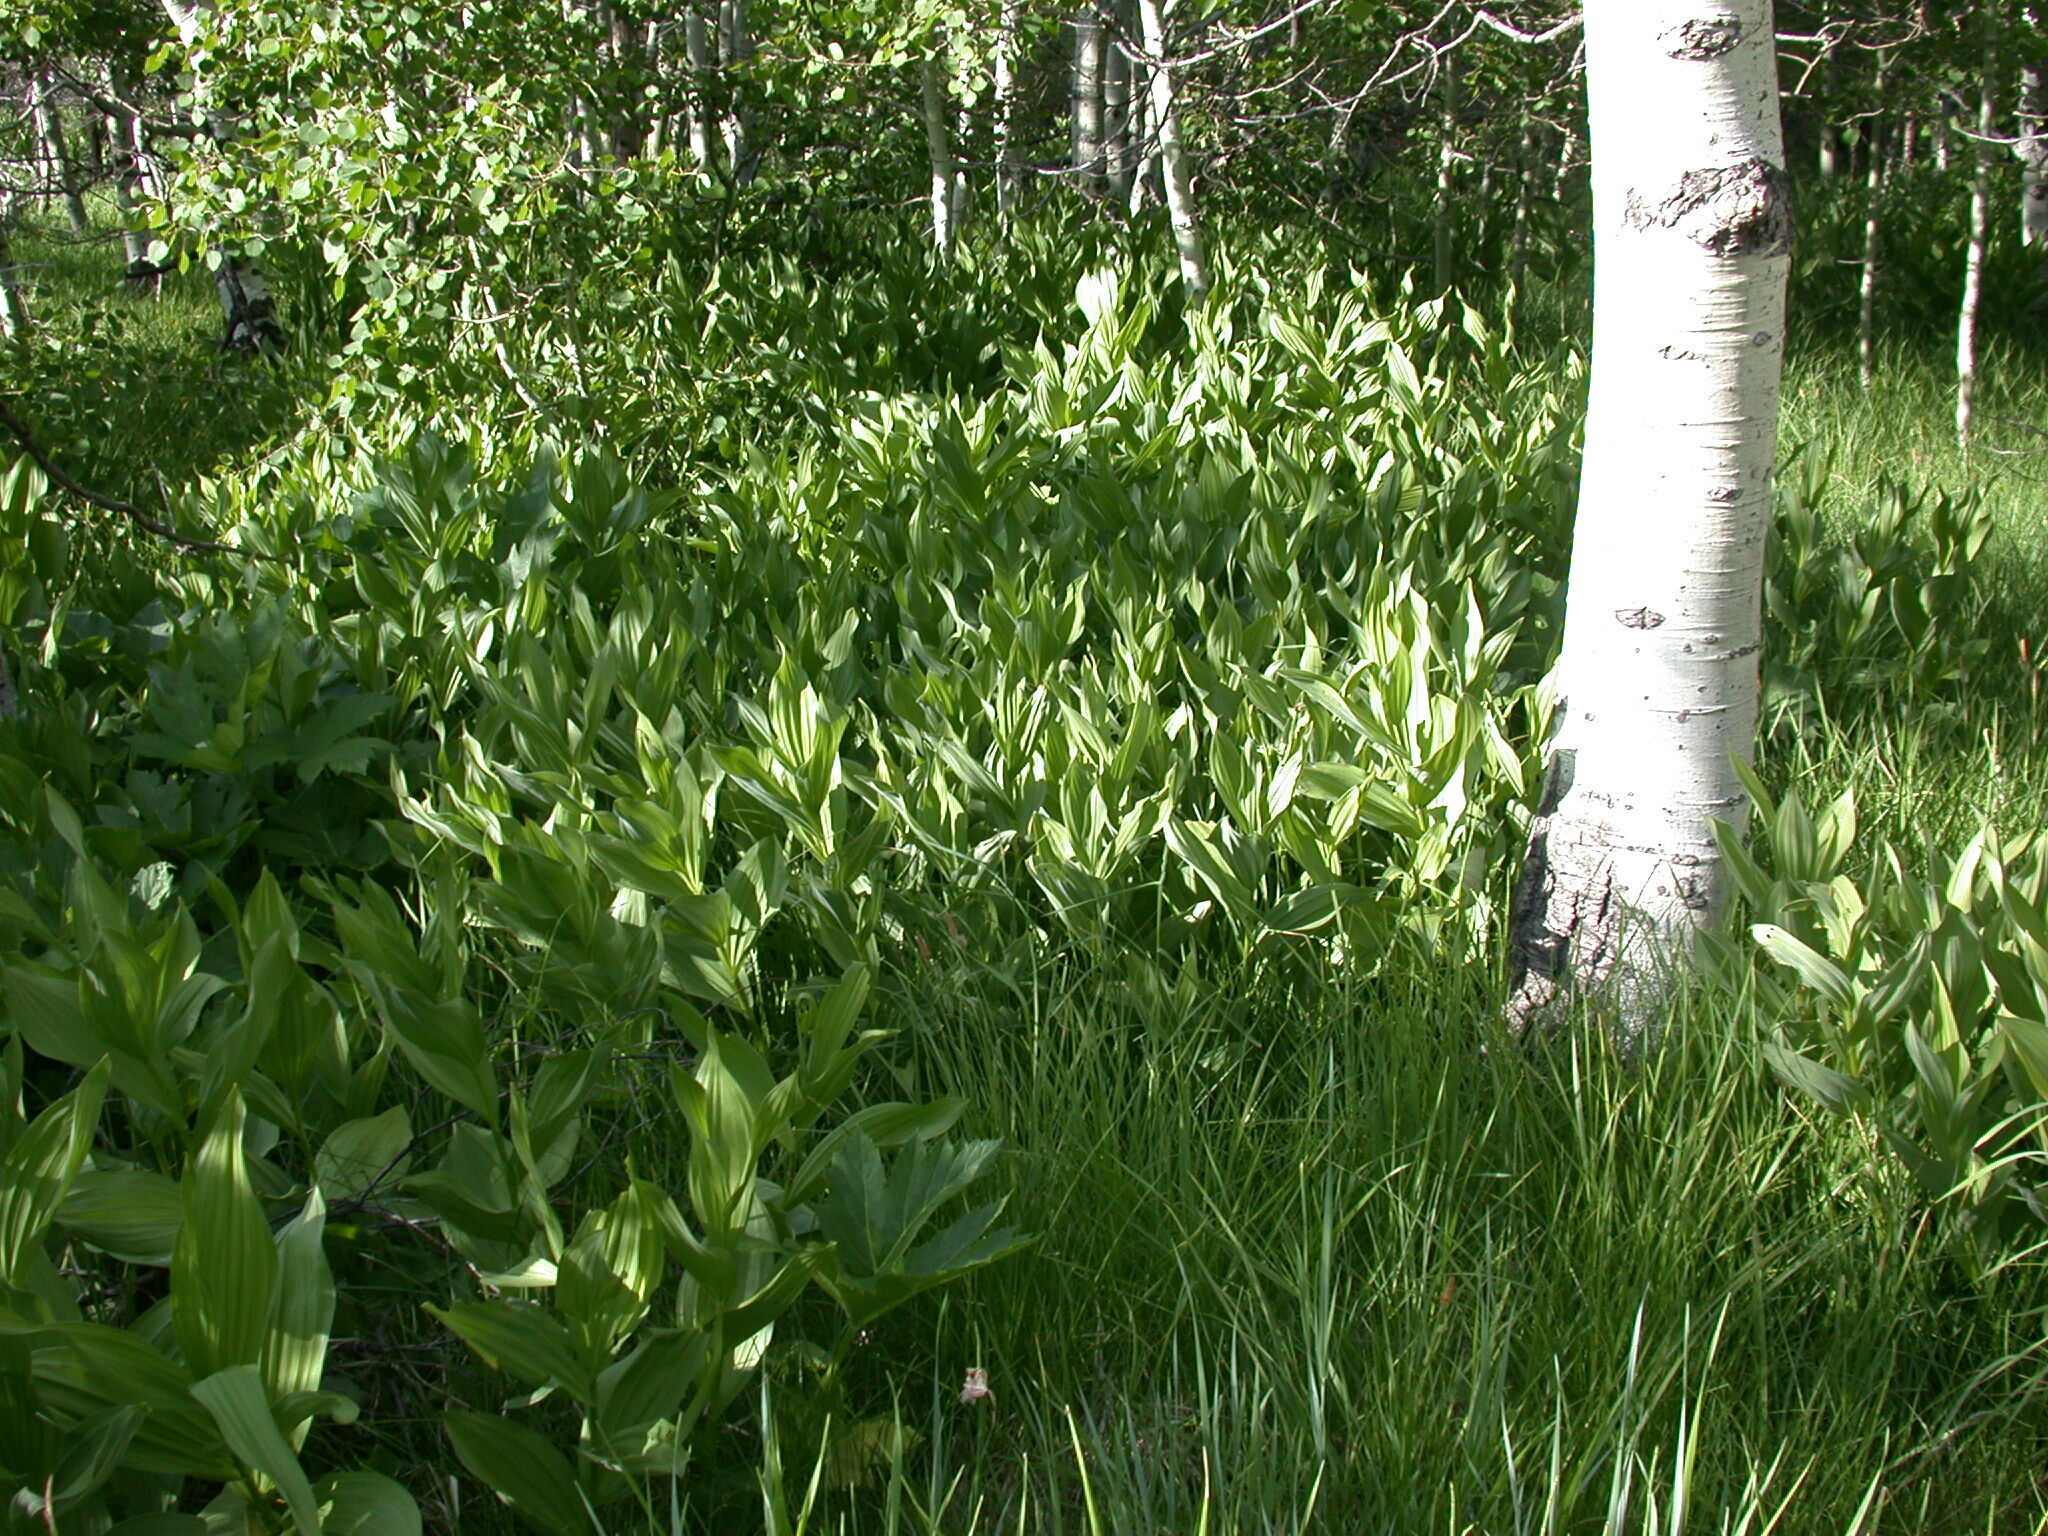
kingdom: Plantae
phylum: Tracheophyta
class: Liliopsida
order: Liliales
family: Melanthiaceae
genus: Veratrum
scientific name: Veratrum californicum
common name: California veratrum
